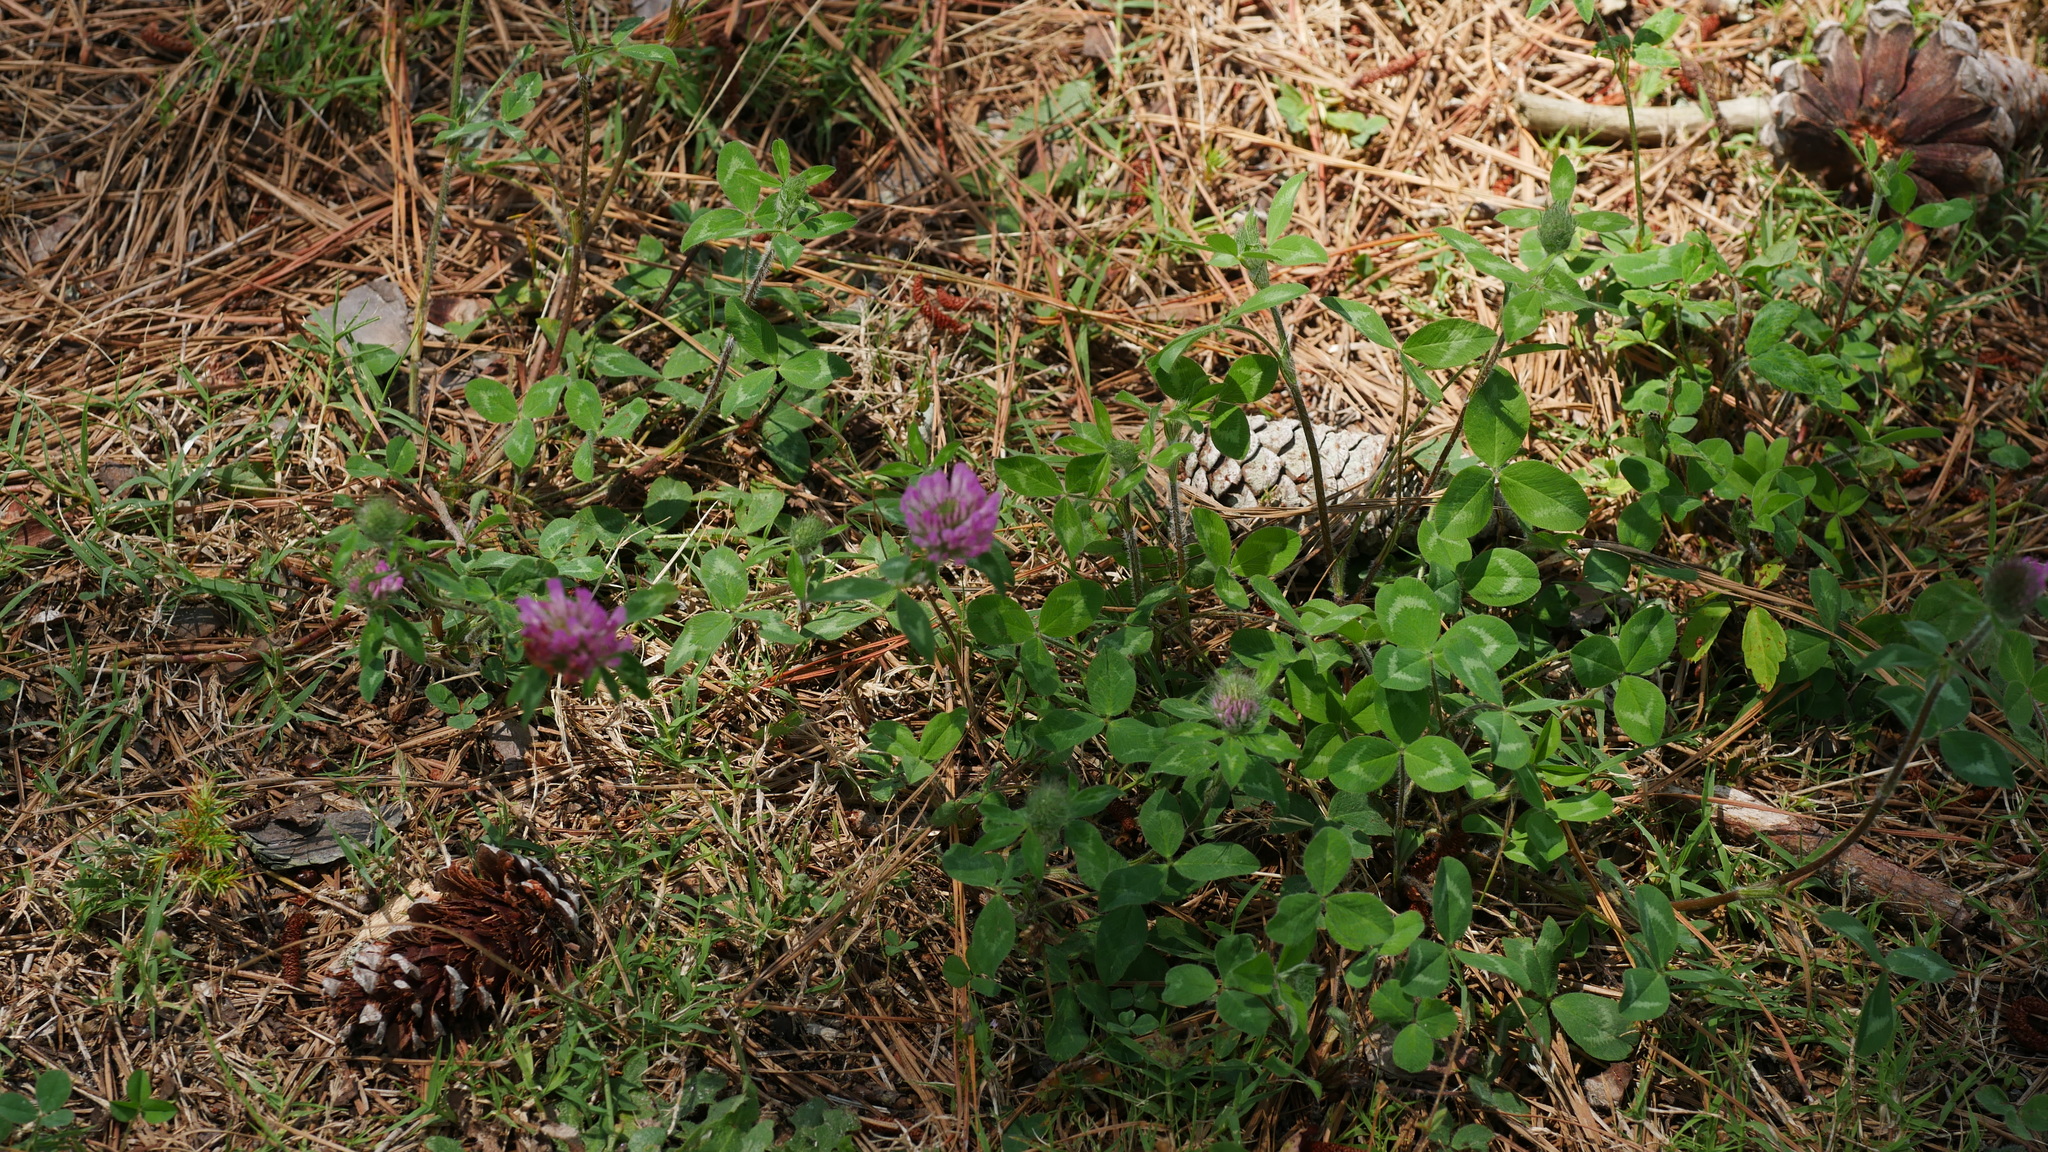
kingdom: Plantae
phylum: Tracheophyta
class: Magnoliopsida
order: Fabales
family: Fabaceae
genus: Trifolium
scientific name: Trifolium pratense
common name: Red clover
